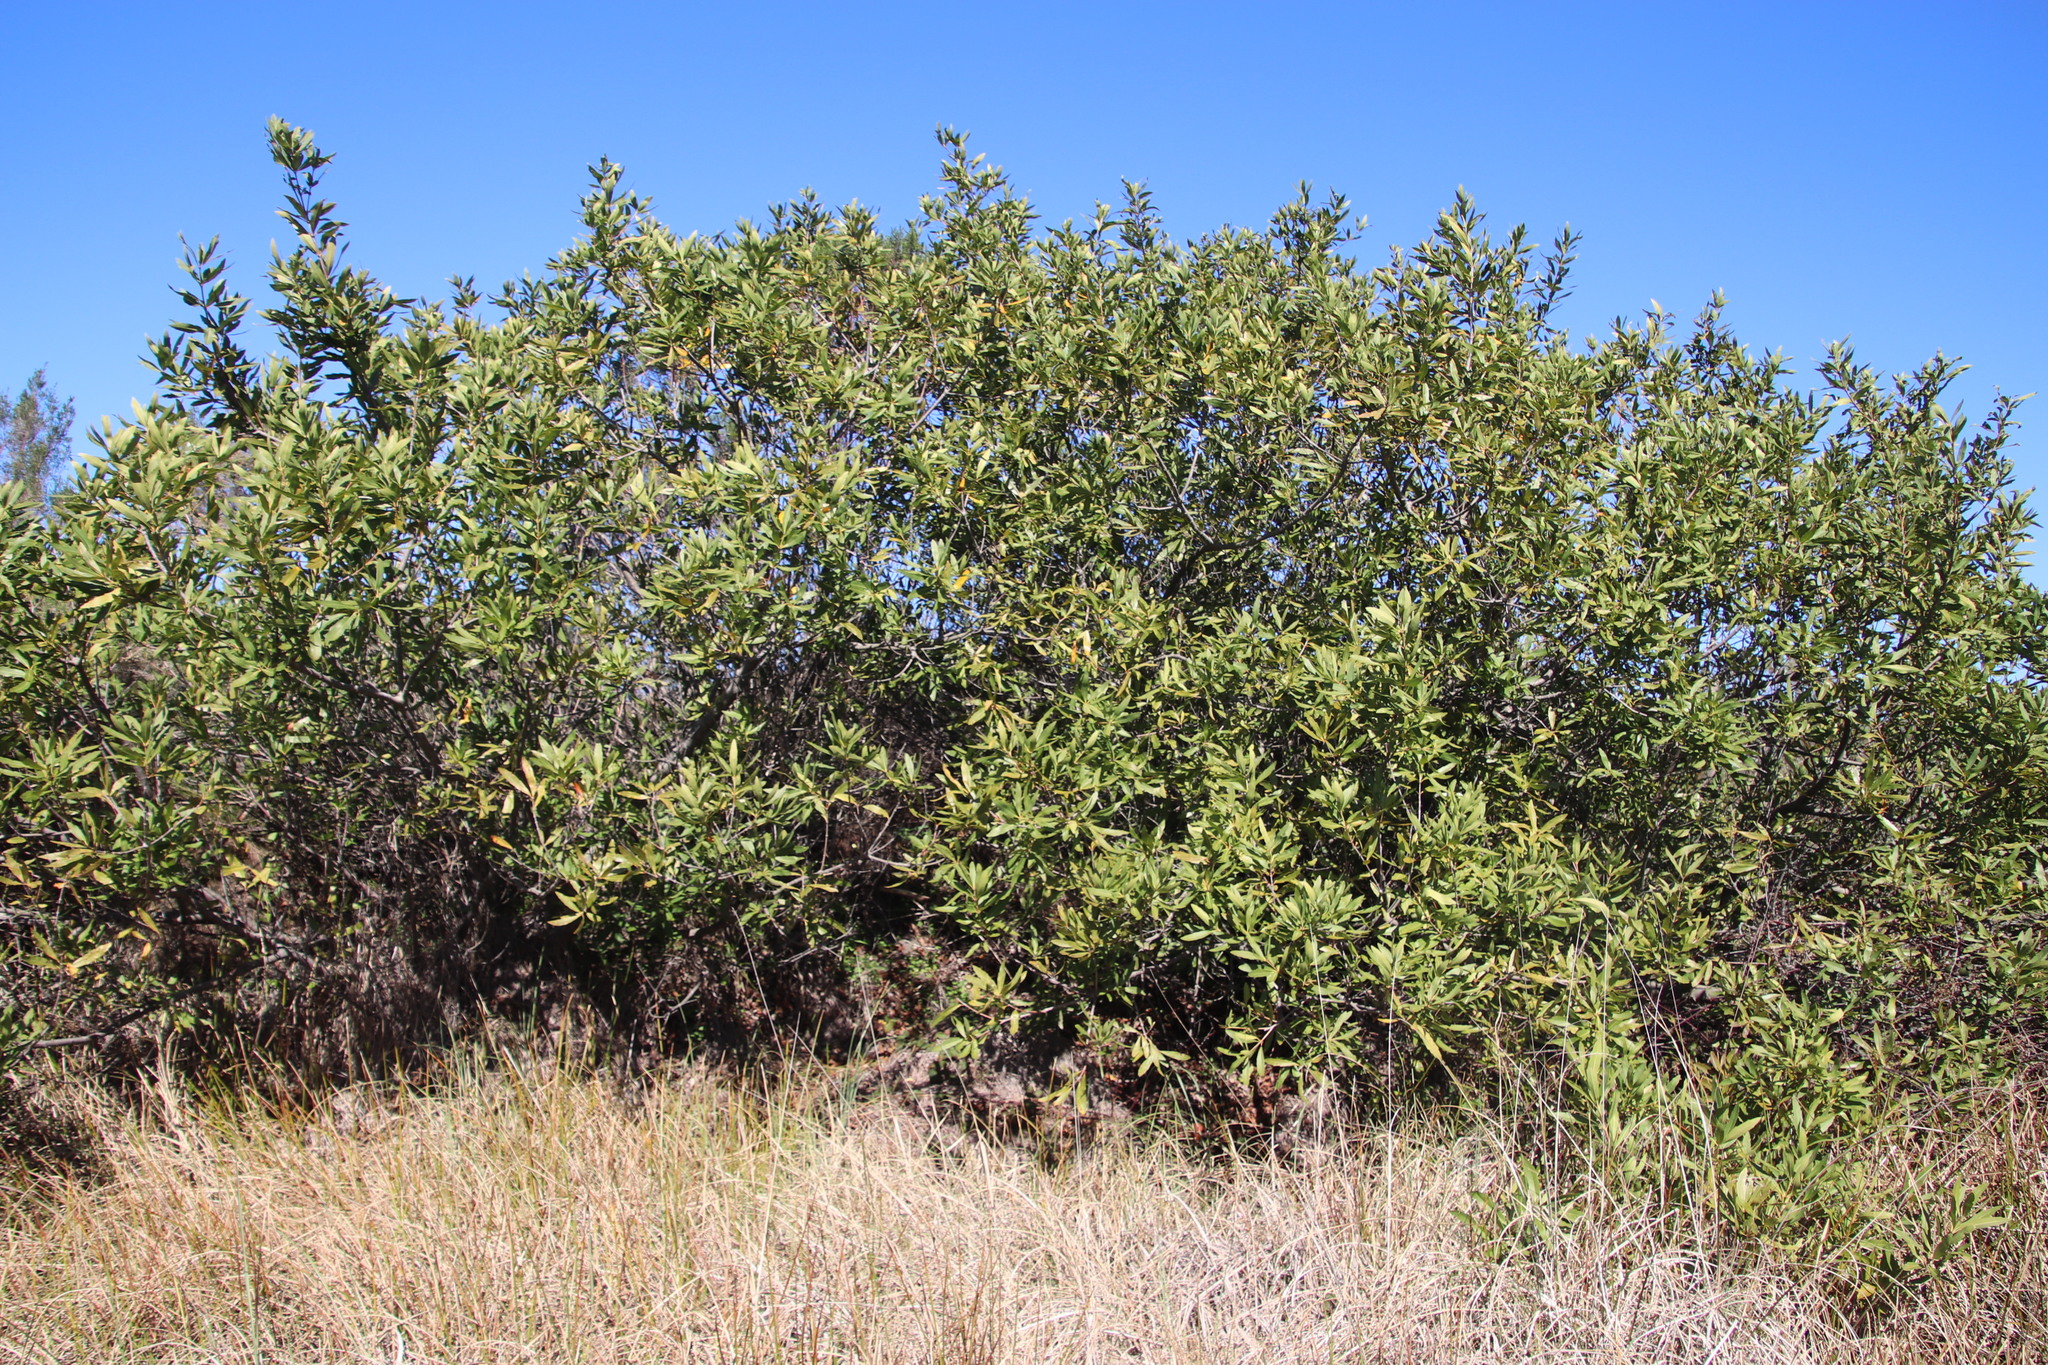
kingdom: Plantae
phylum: Tracheophyta
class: Magnoliopsida
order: Proteales
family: Proteaceae
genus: Brabejum
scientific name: Brabejum stellatifolium
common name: Wild almond
